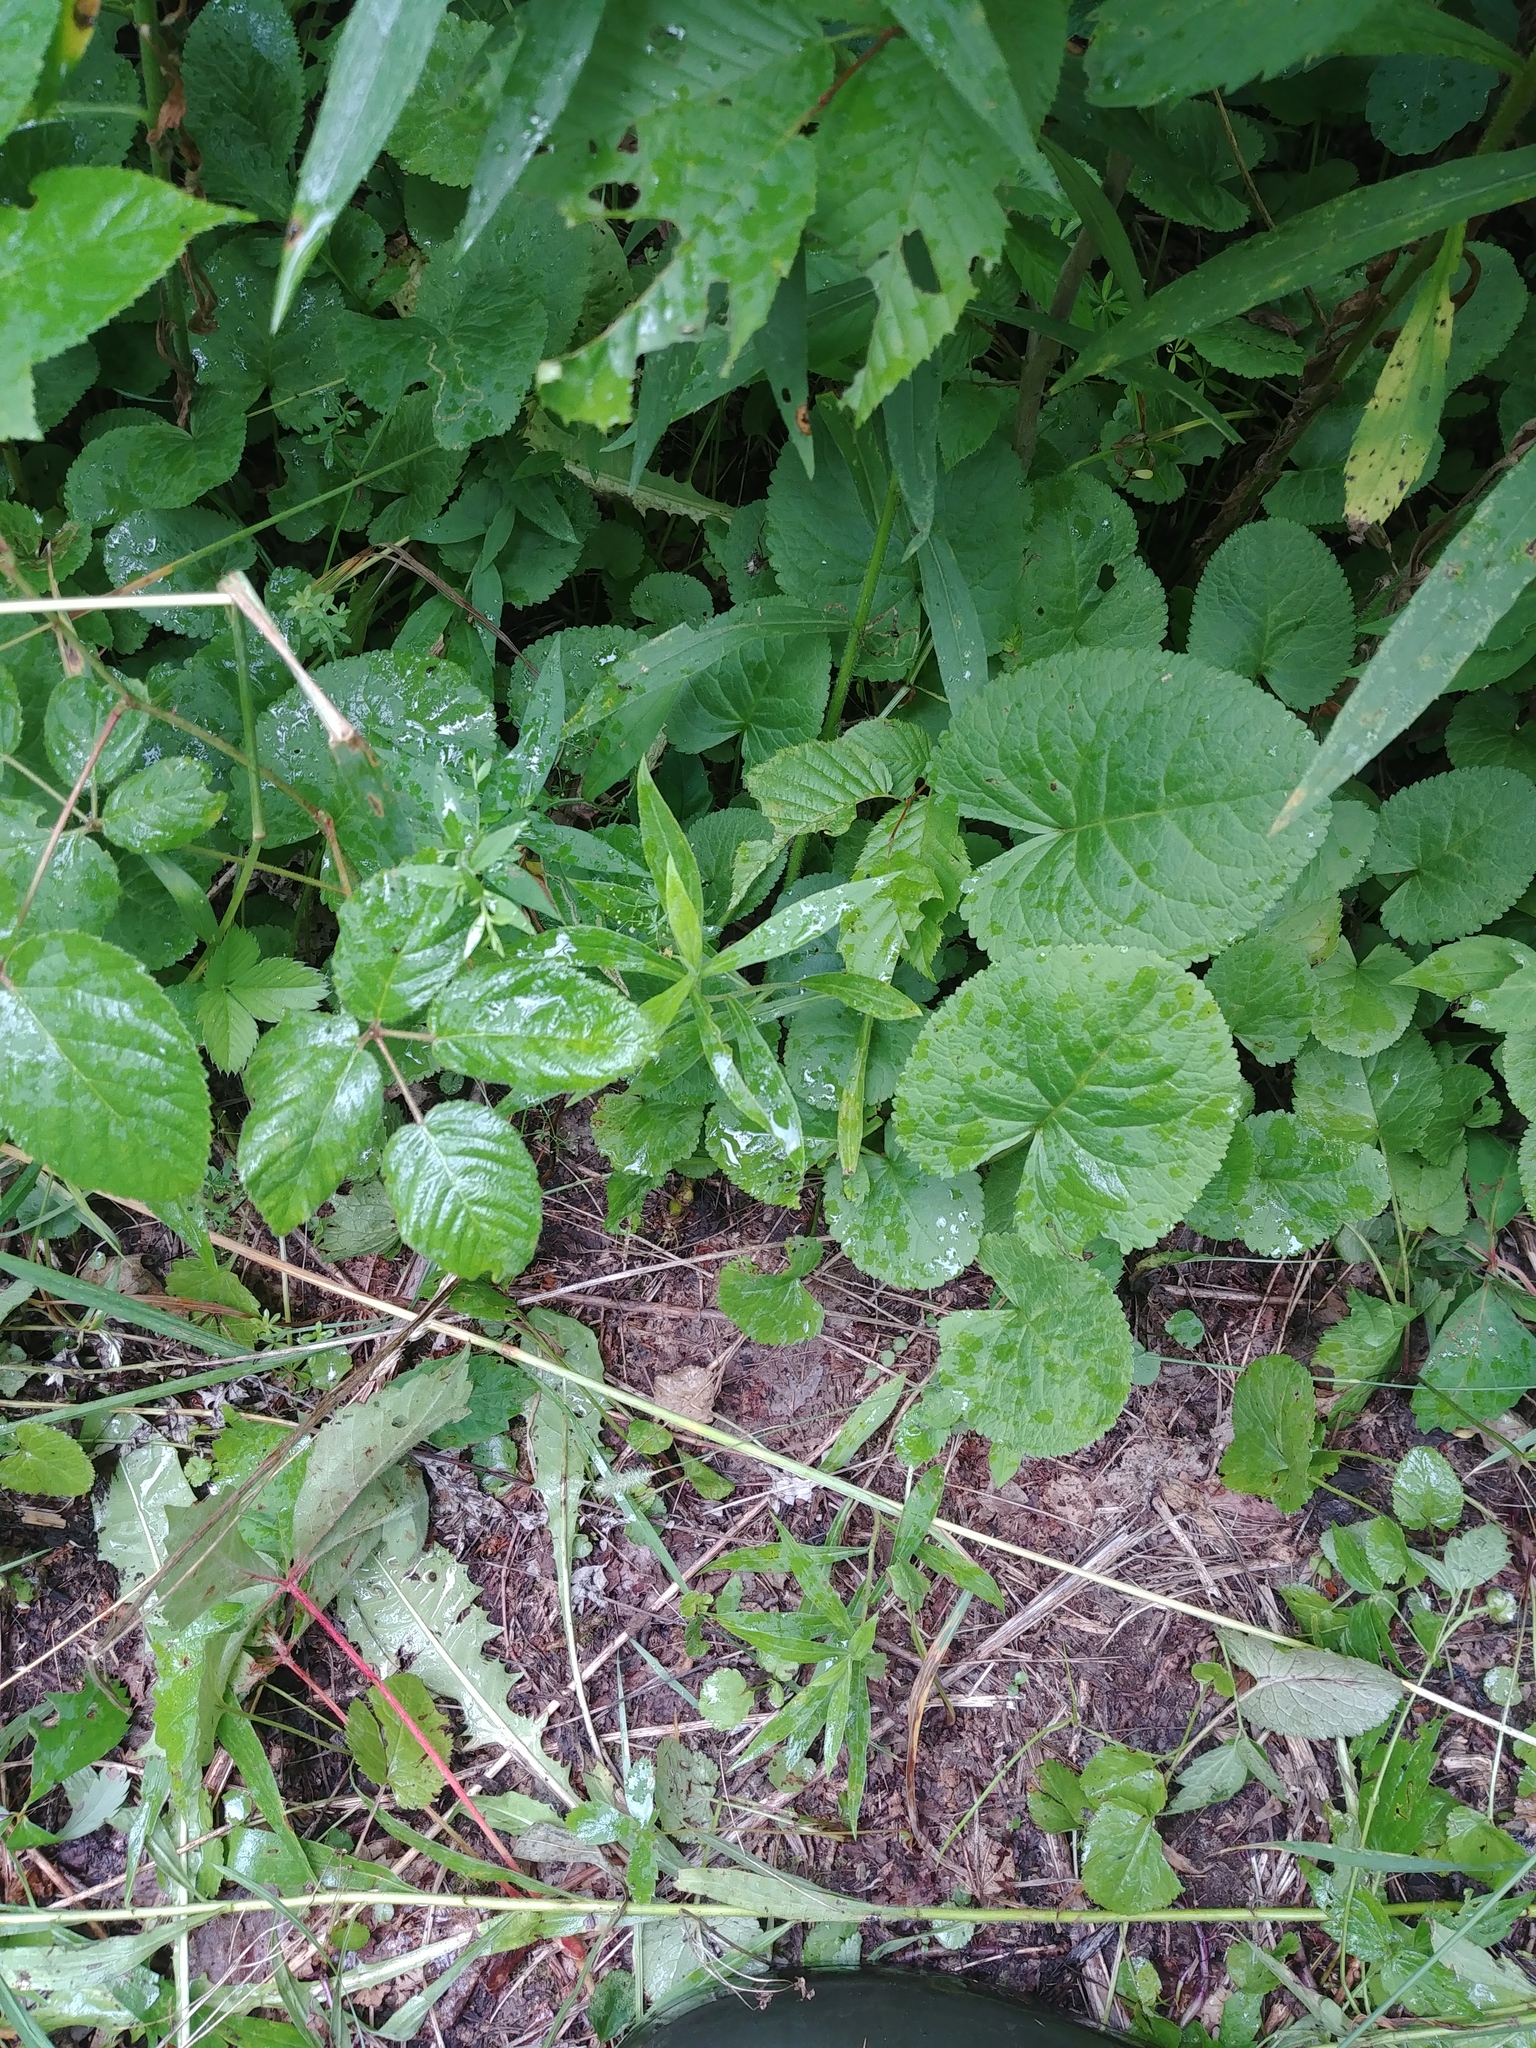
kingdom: Plantae
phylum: Tracheophyta
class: Magnoliopsida
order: Asterales
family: Asteraceae
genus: Packera
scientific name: Packera aurea
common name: Golden groundsel
